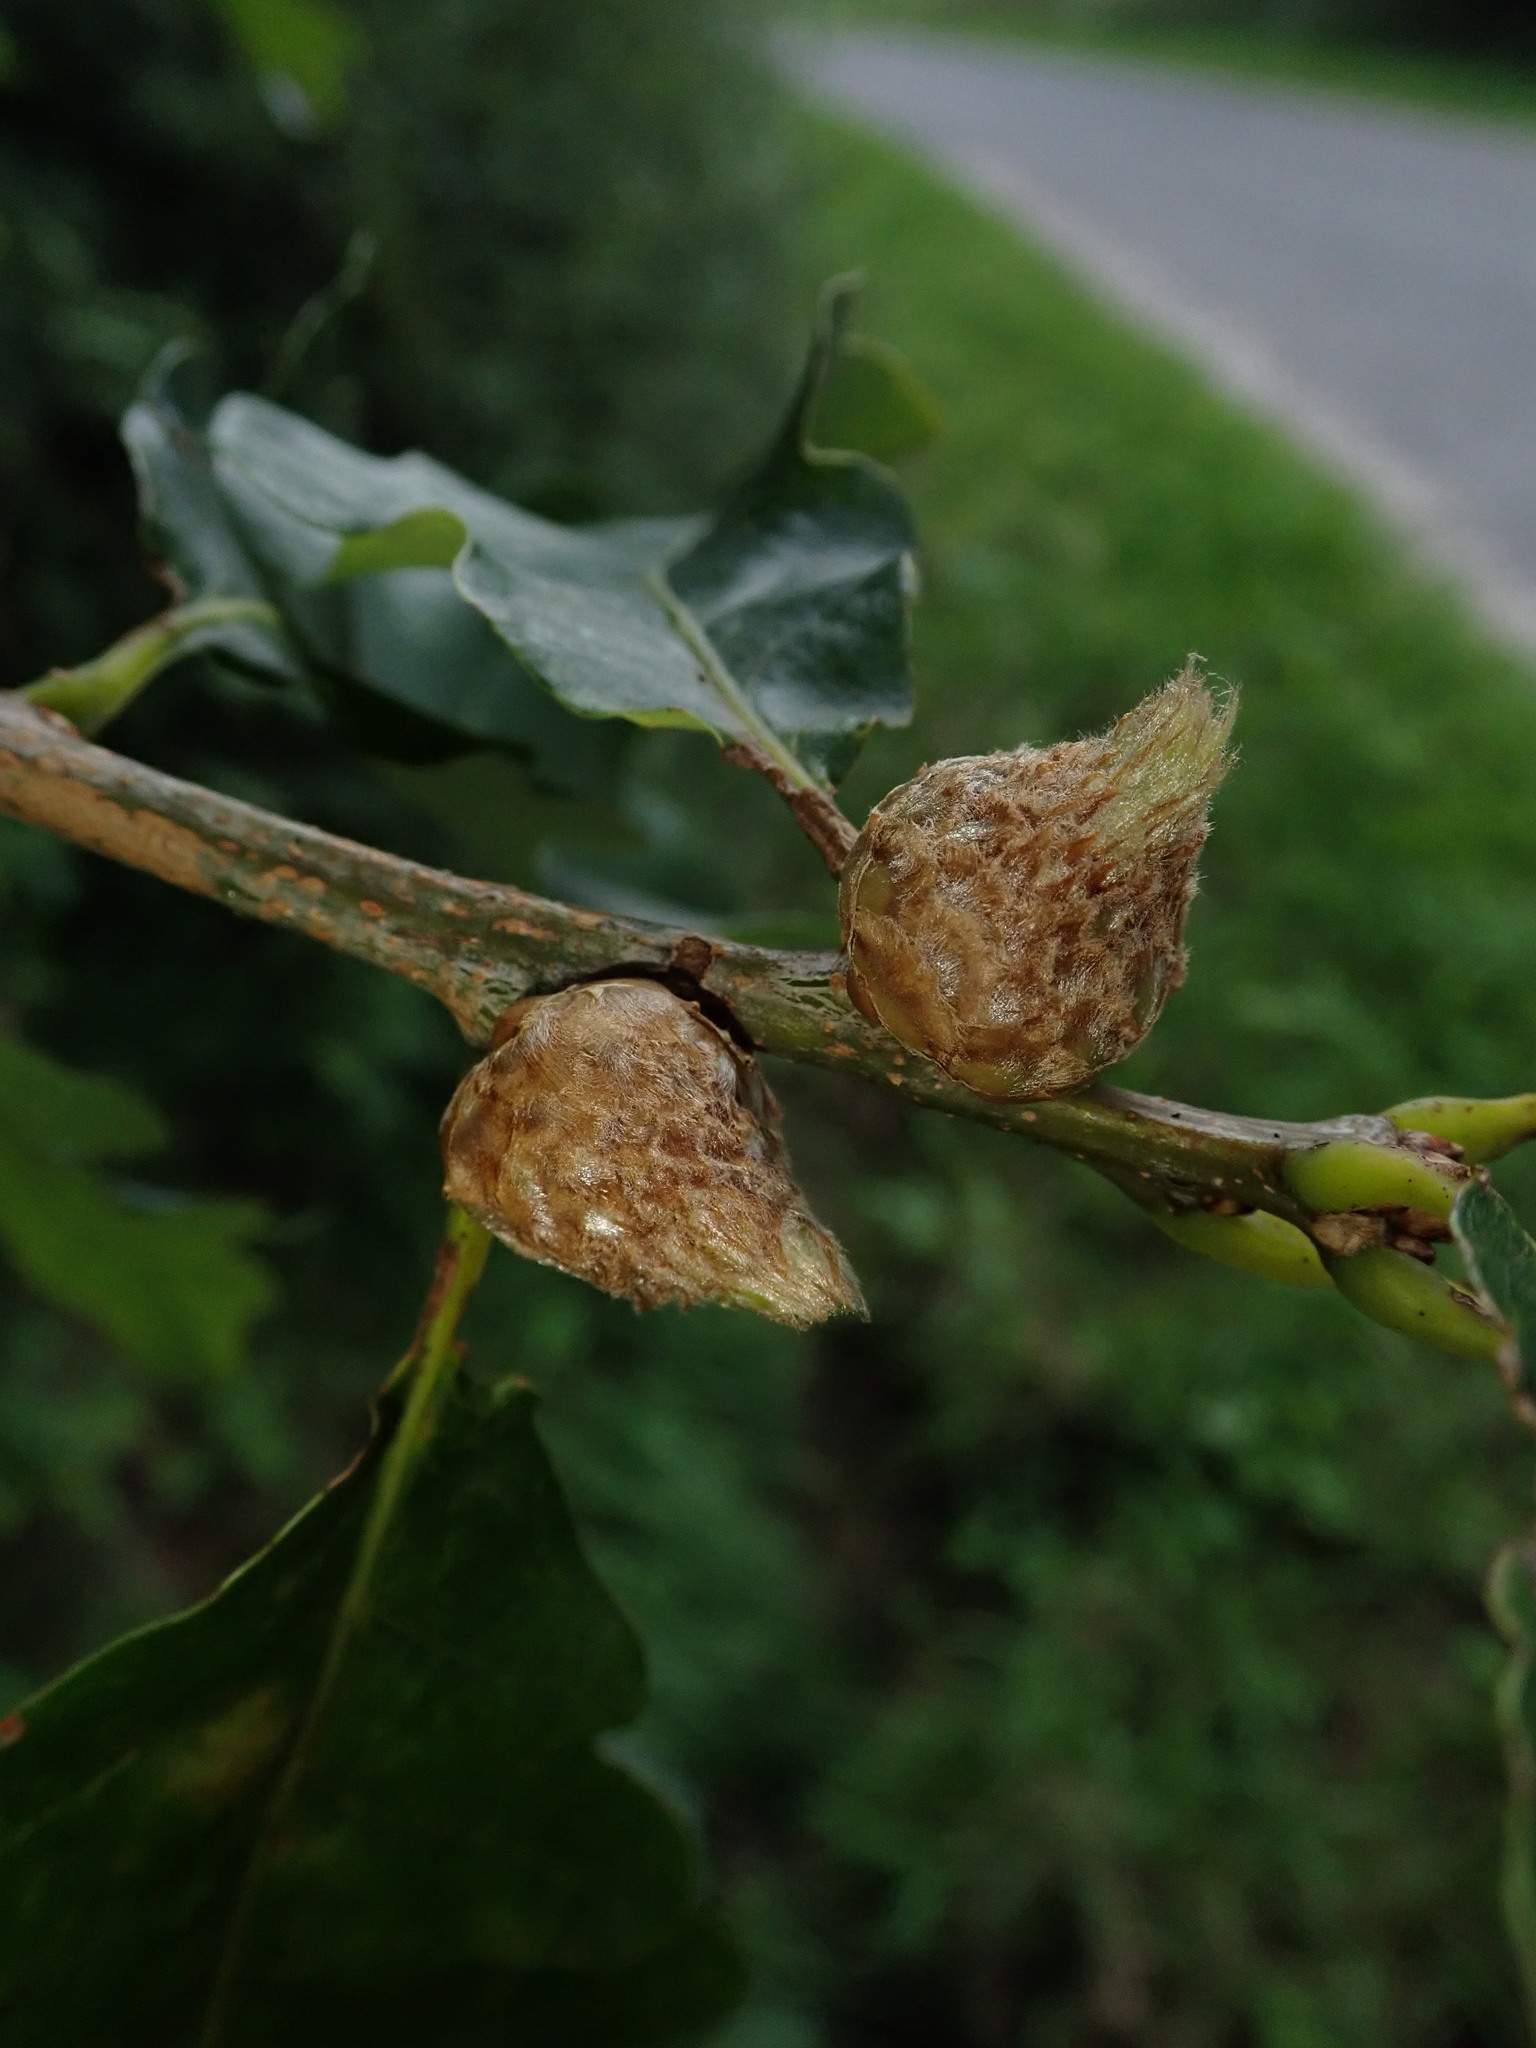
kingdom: Animalia
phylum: Arthropoda
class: Insecta
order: Hymenoptera
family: Cynipidae
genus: Andricus
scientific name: Andricus foecundatrix
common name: Artichoke gall
